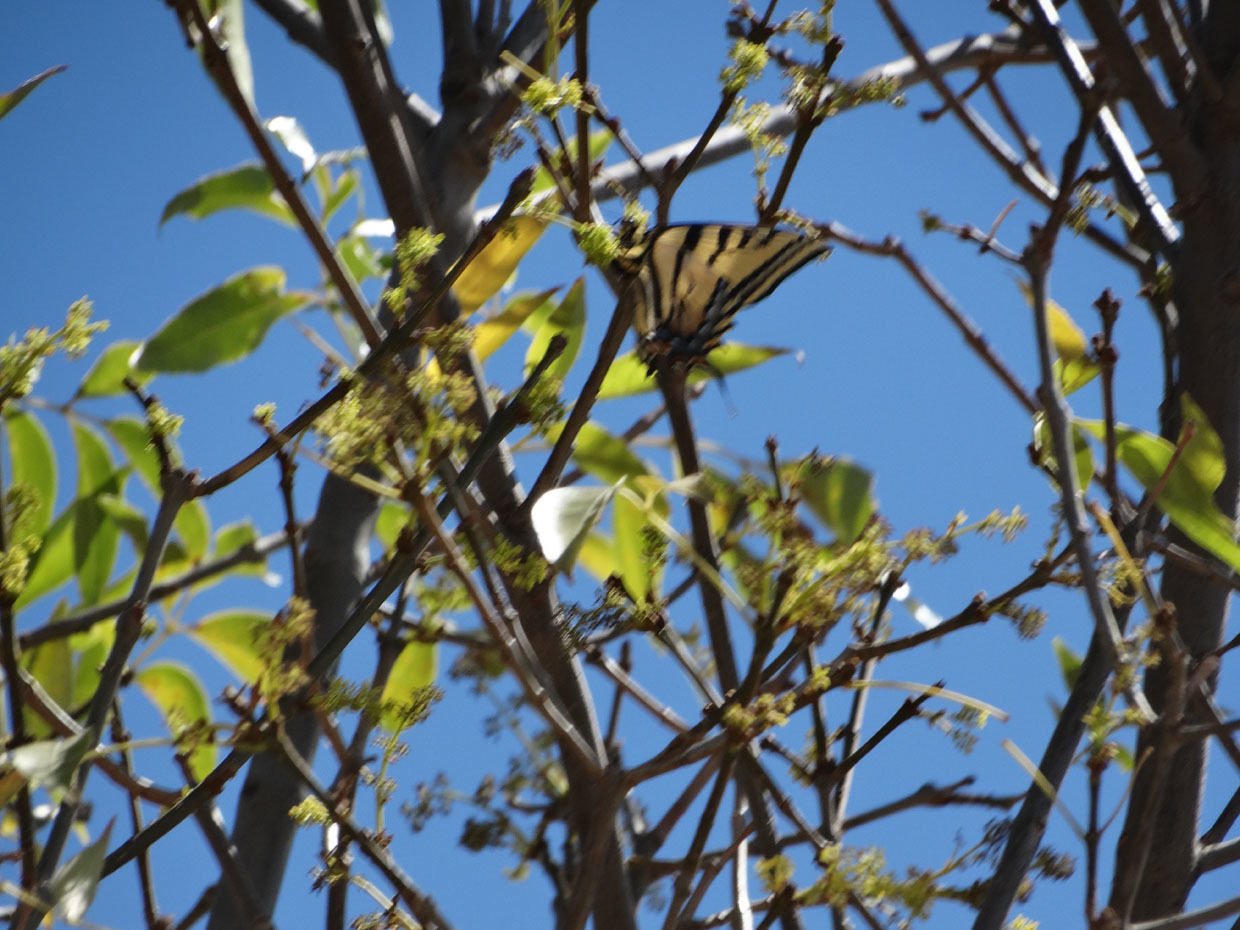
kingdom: Animalia
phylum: Arthropoda
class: Insecta
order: Lepidoptera
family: Papilionidae
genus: Papilio
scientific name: Papilio multicaudata
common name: Two-tailed tiger swallowtail
